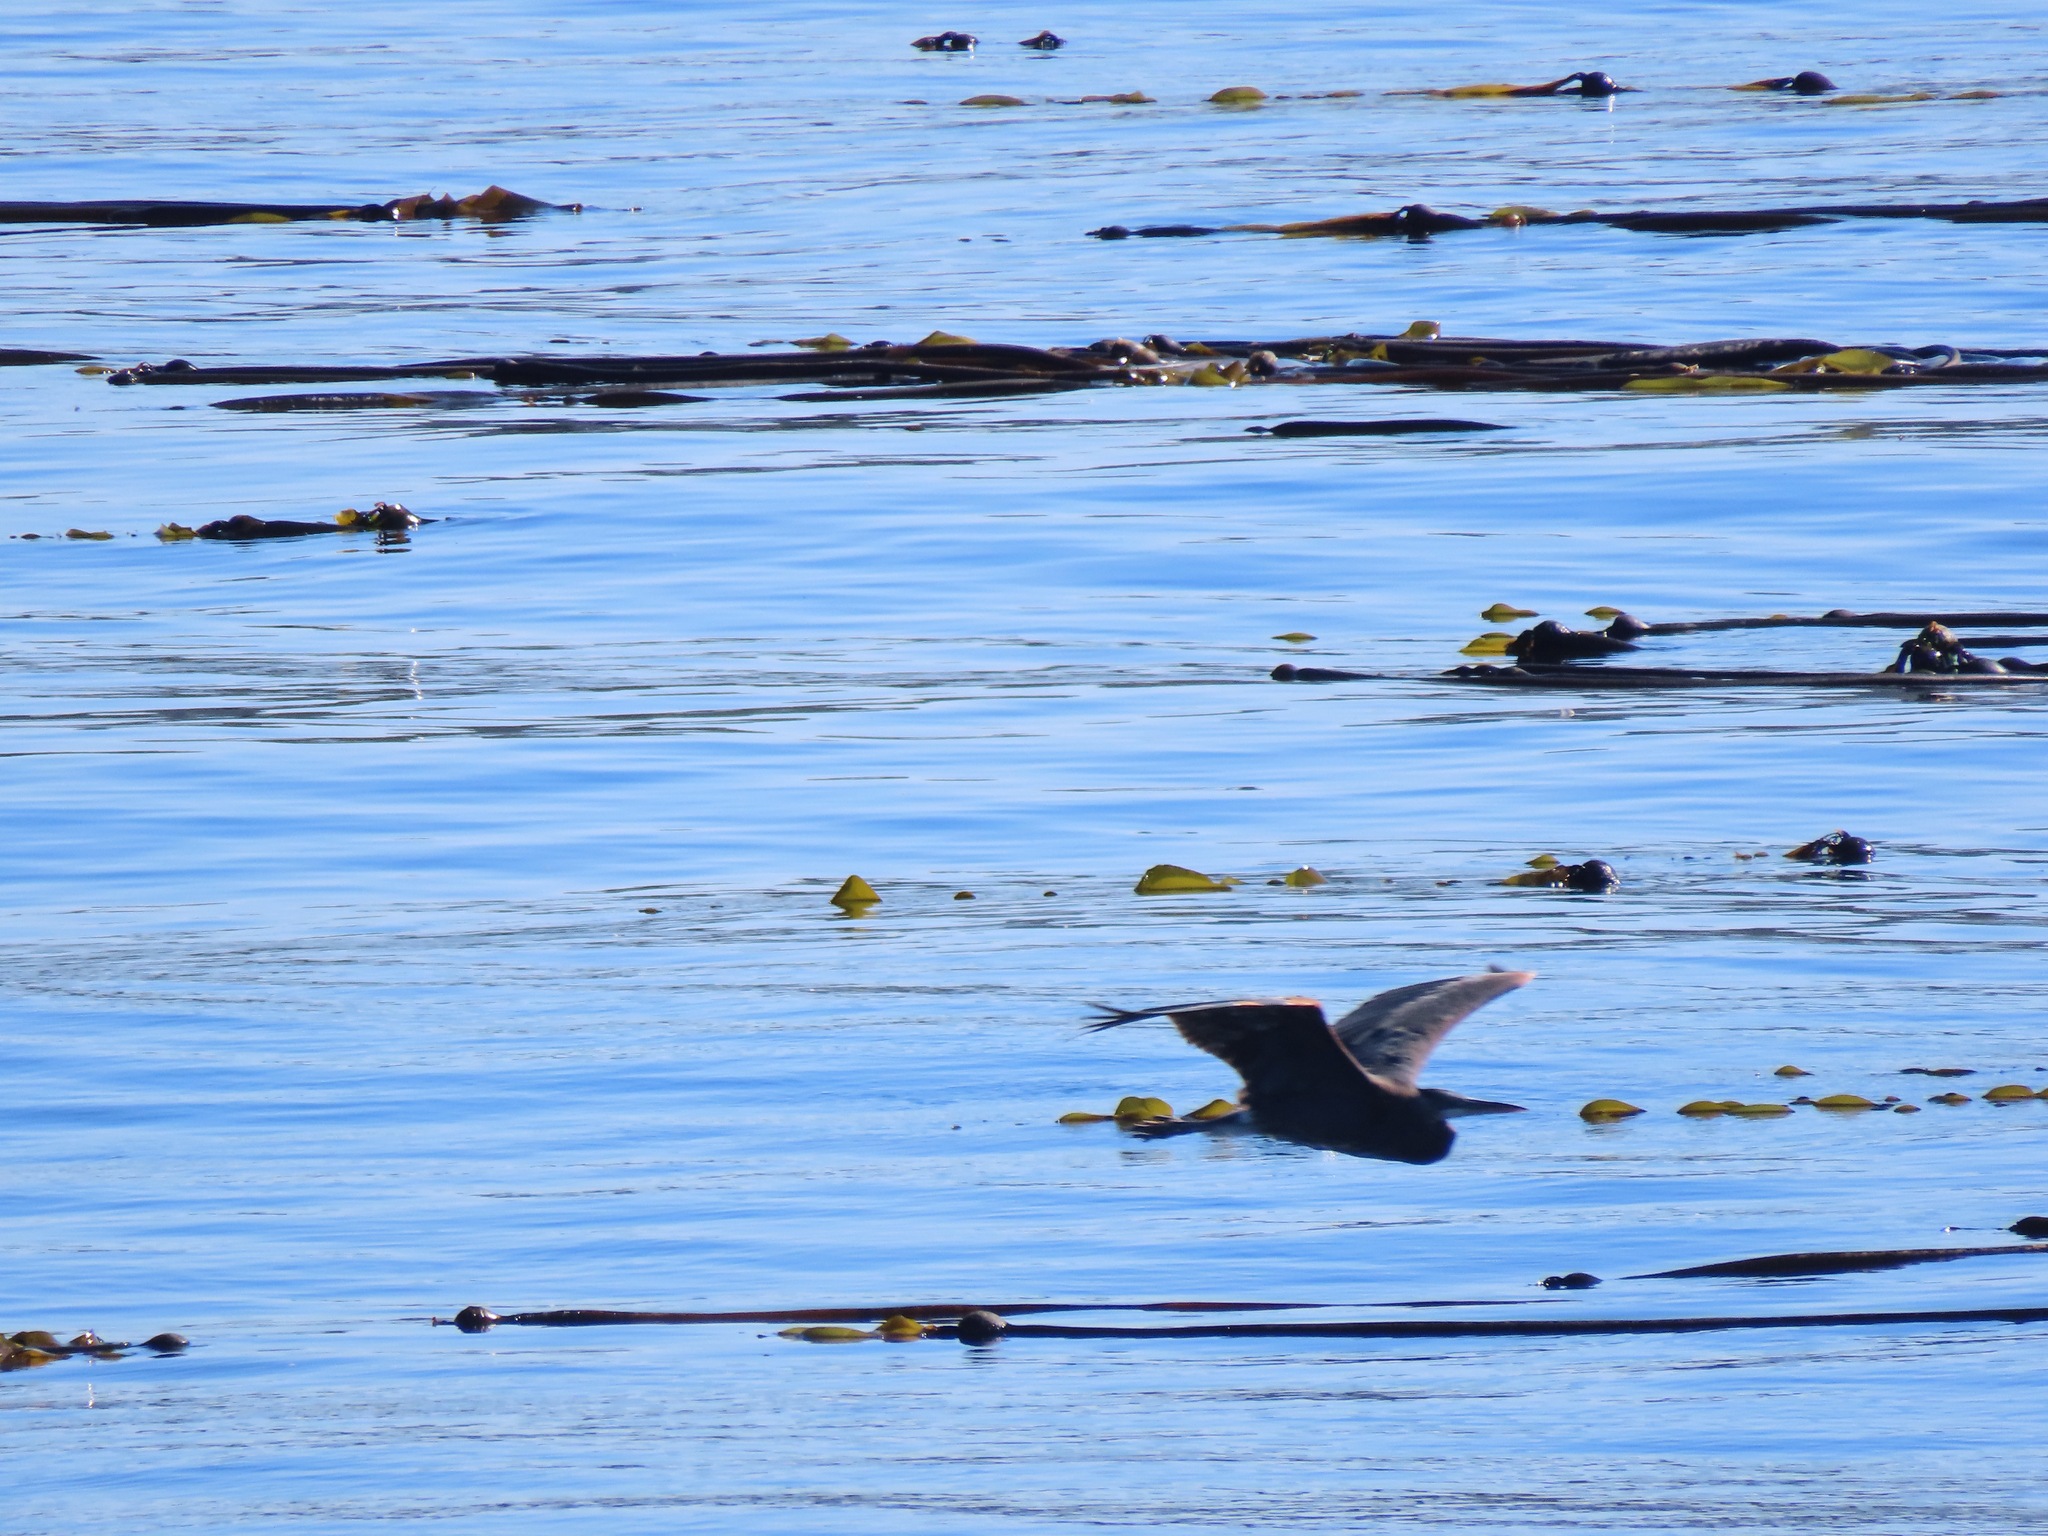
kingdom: Animalia
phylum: Chordata
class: Aves
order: Pelecaniformes
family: Ardeidae
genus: Ardea
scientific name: Ardea herodias
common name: Great blue heron
